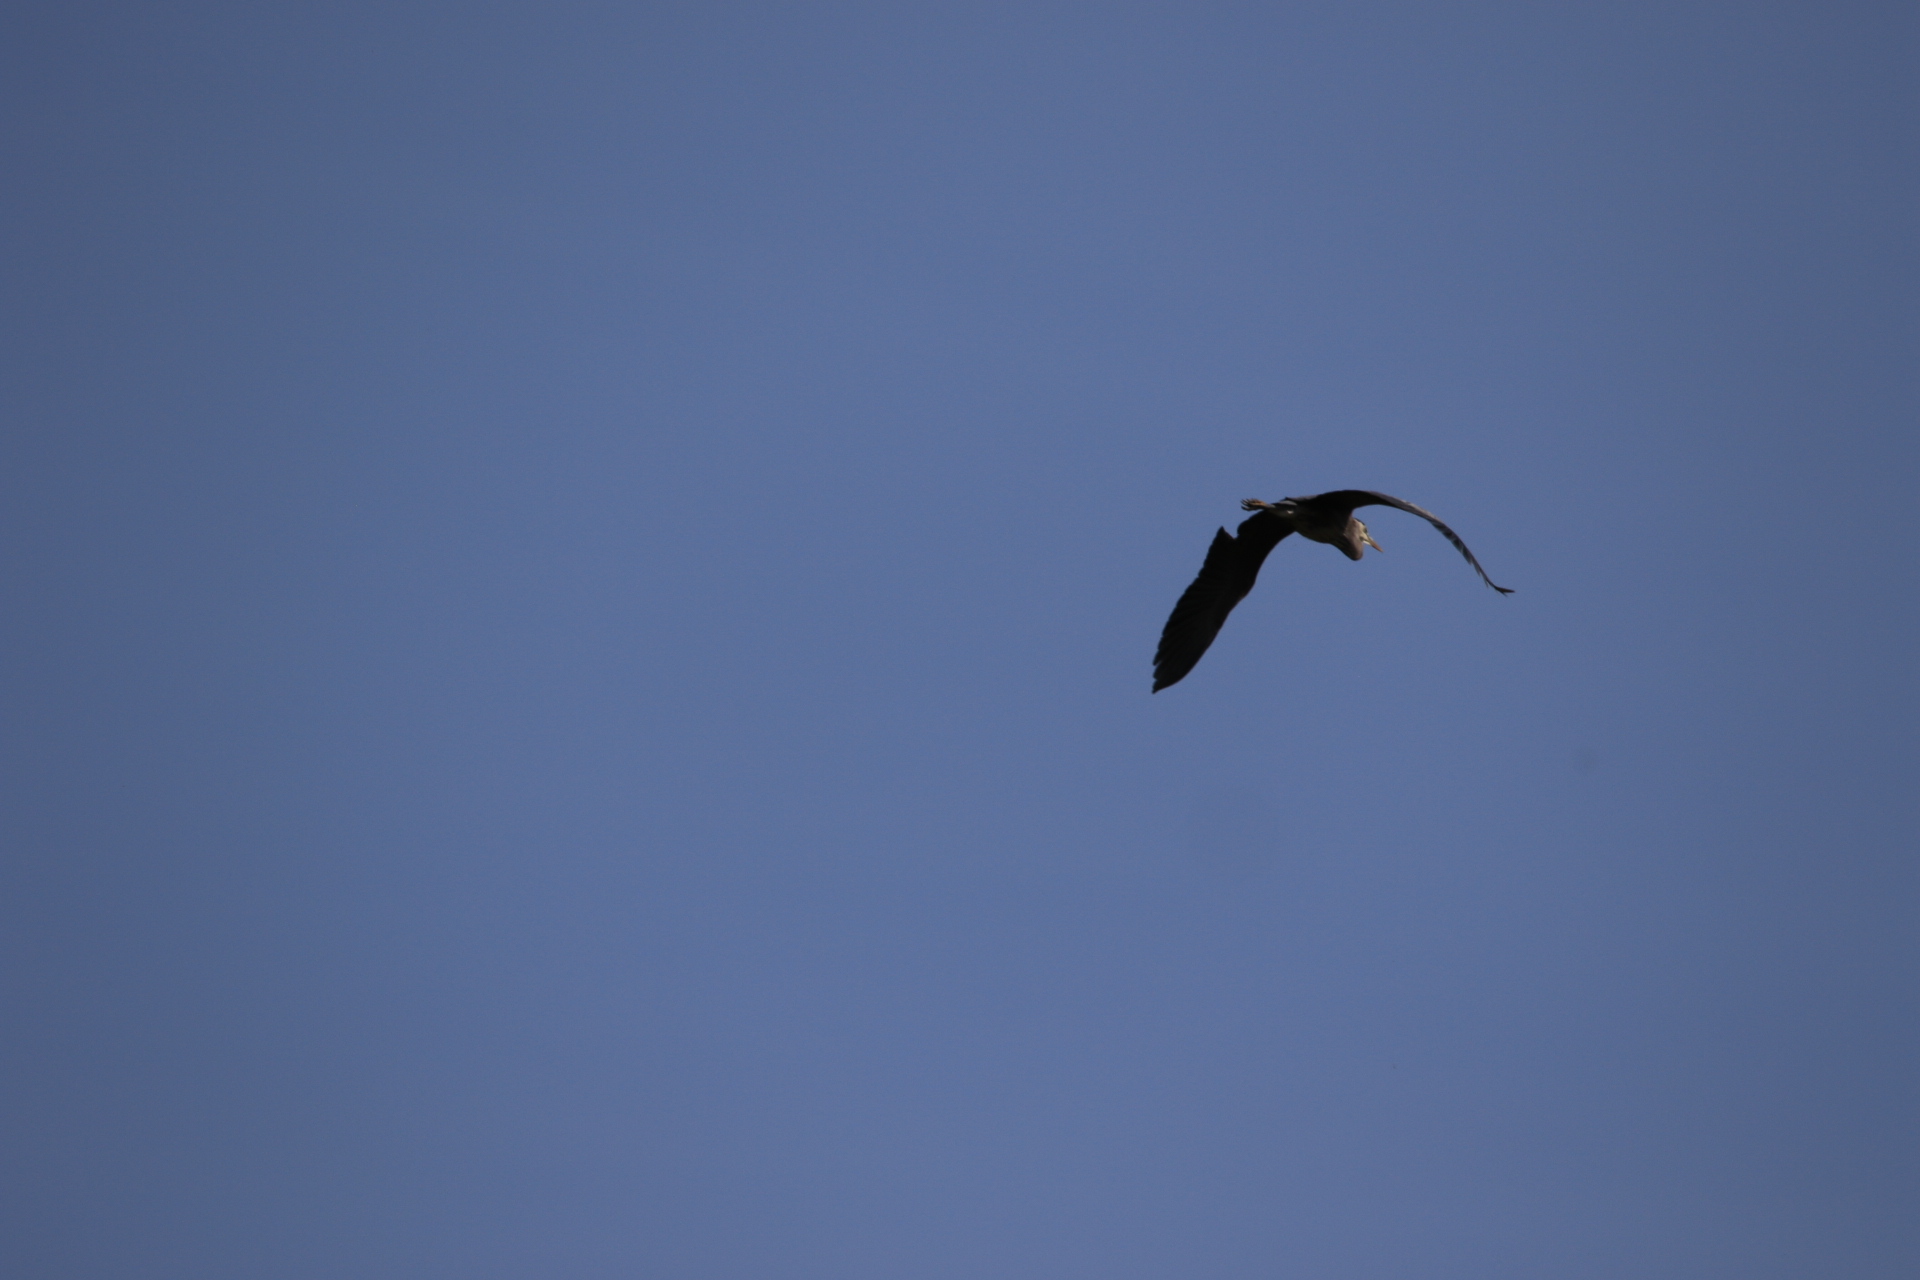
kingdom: Animalia
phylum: Chordata
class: Aves
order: Pelecaniformes
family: Ardeidae
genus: Ardea
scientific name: Ardea herodias
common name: Great blue heron
